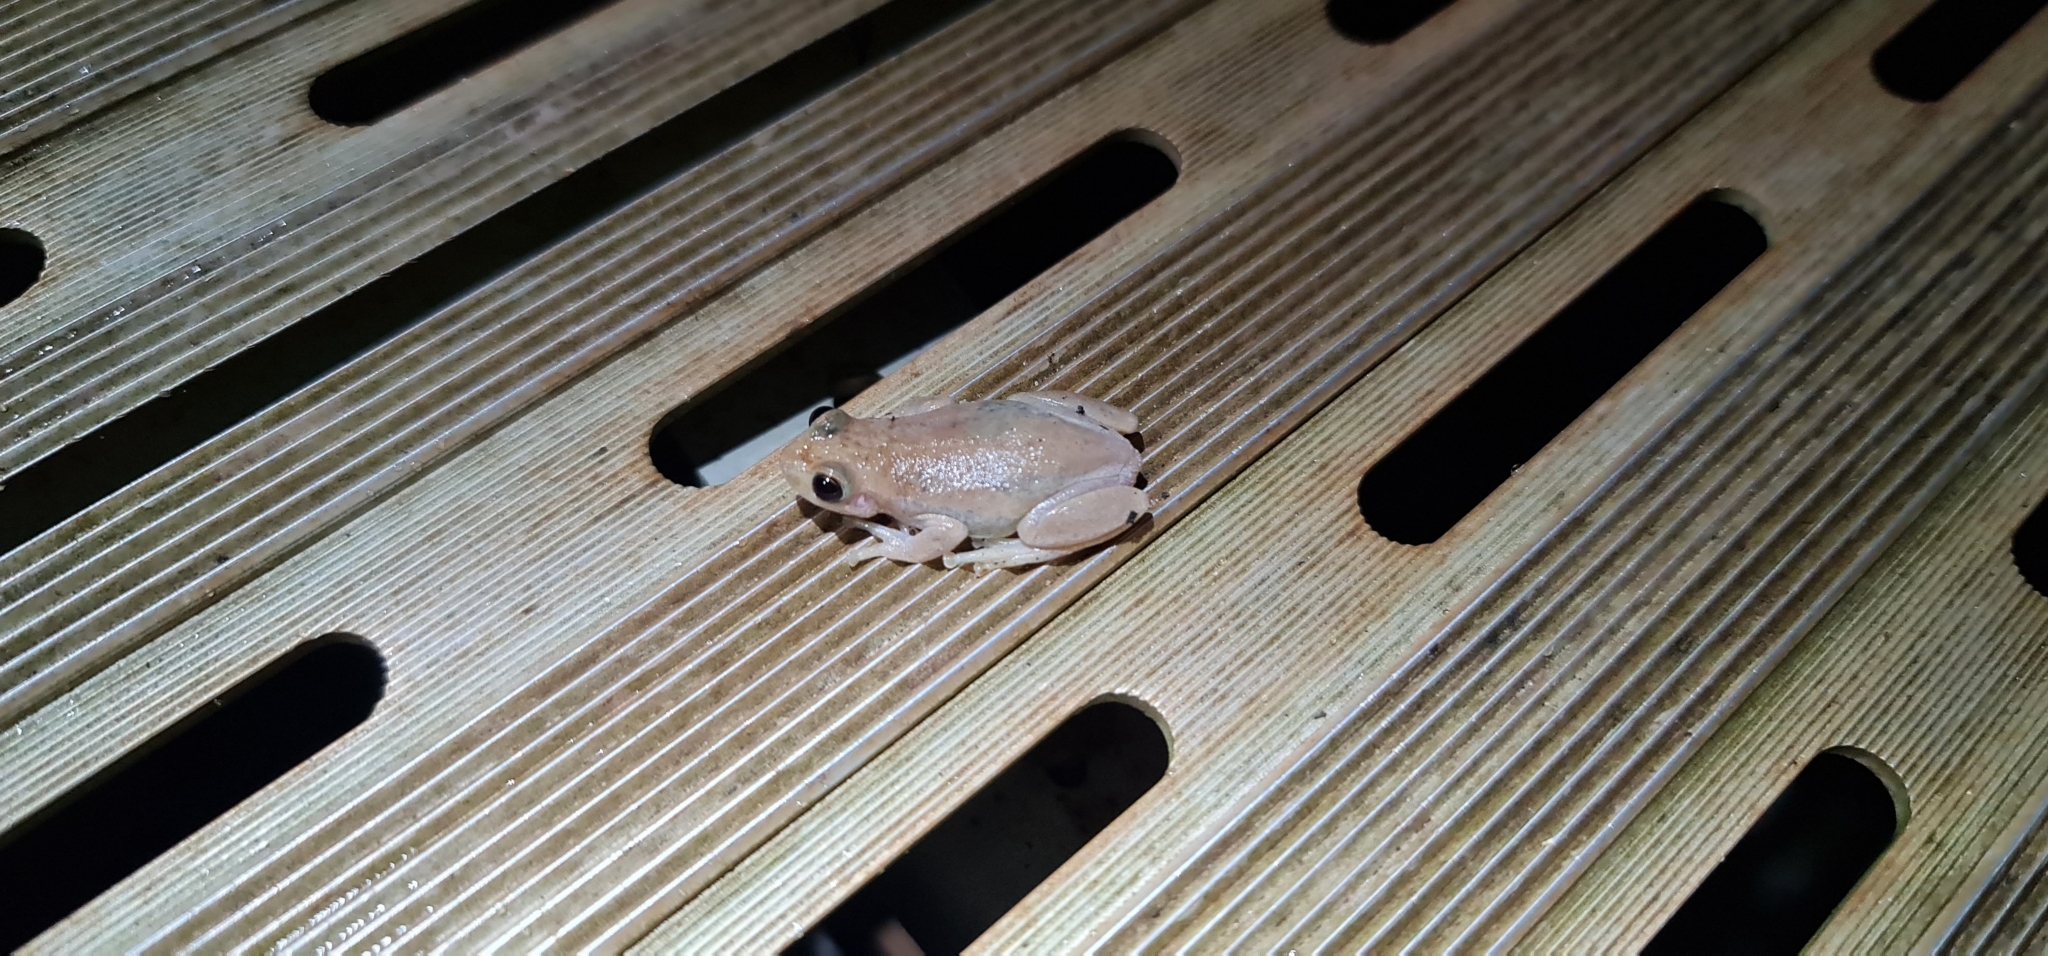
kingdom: Animalia
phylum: Chordata
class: Amphibia
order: Anura
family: Pelodryadidae
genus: Litoria
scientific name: Litoria rubella
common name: Desert tree frog
